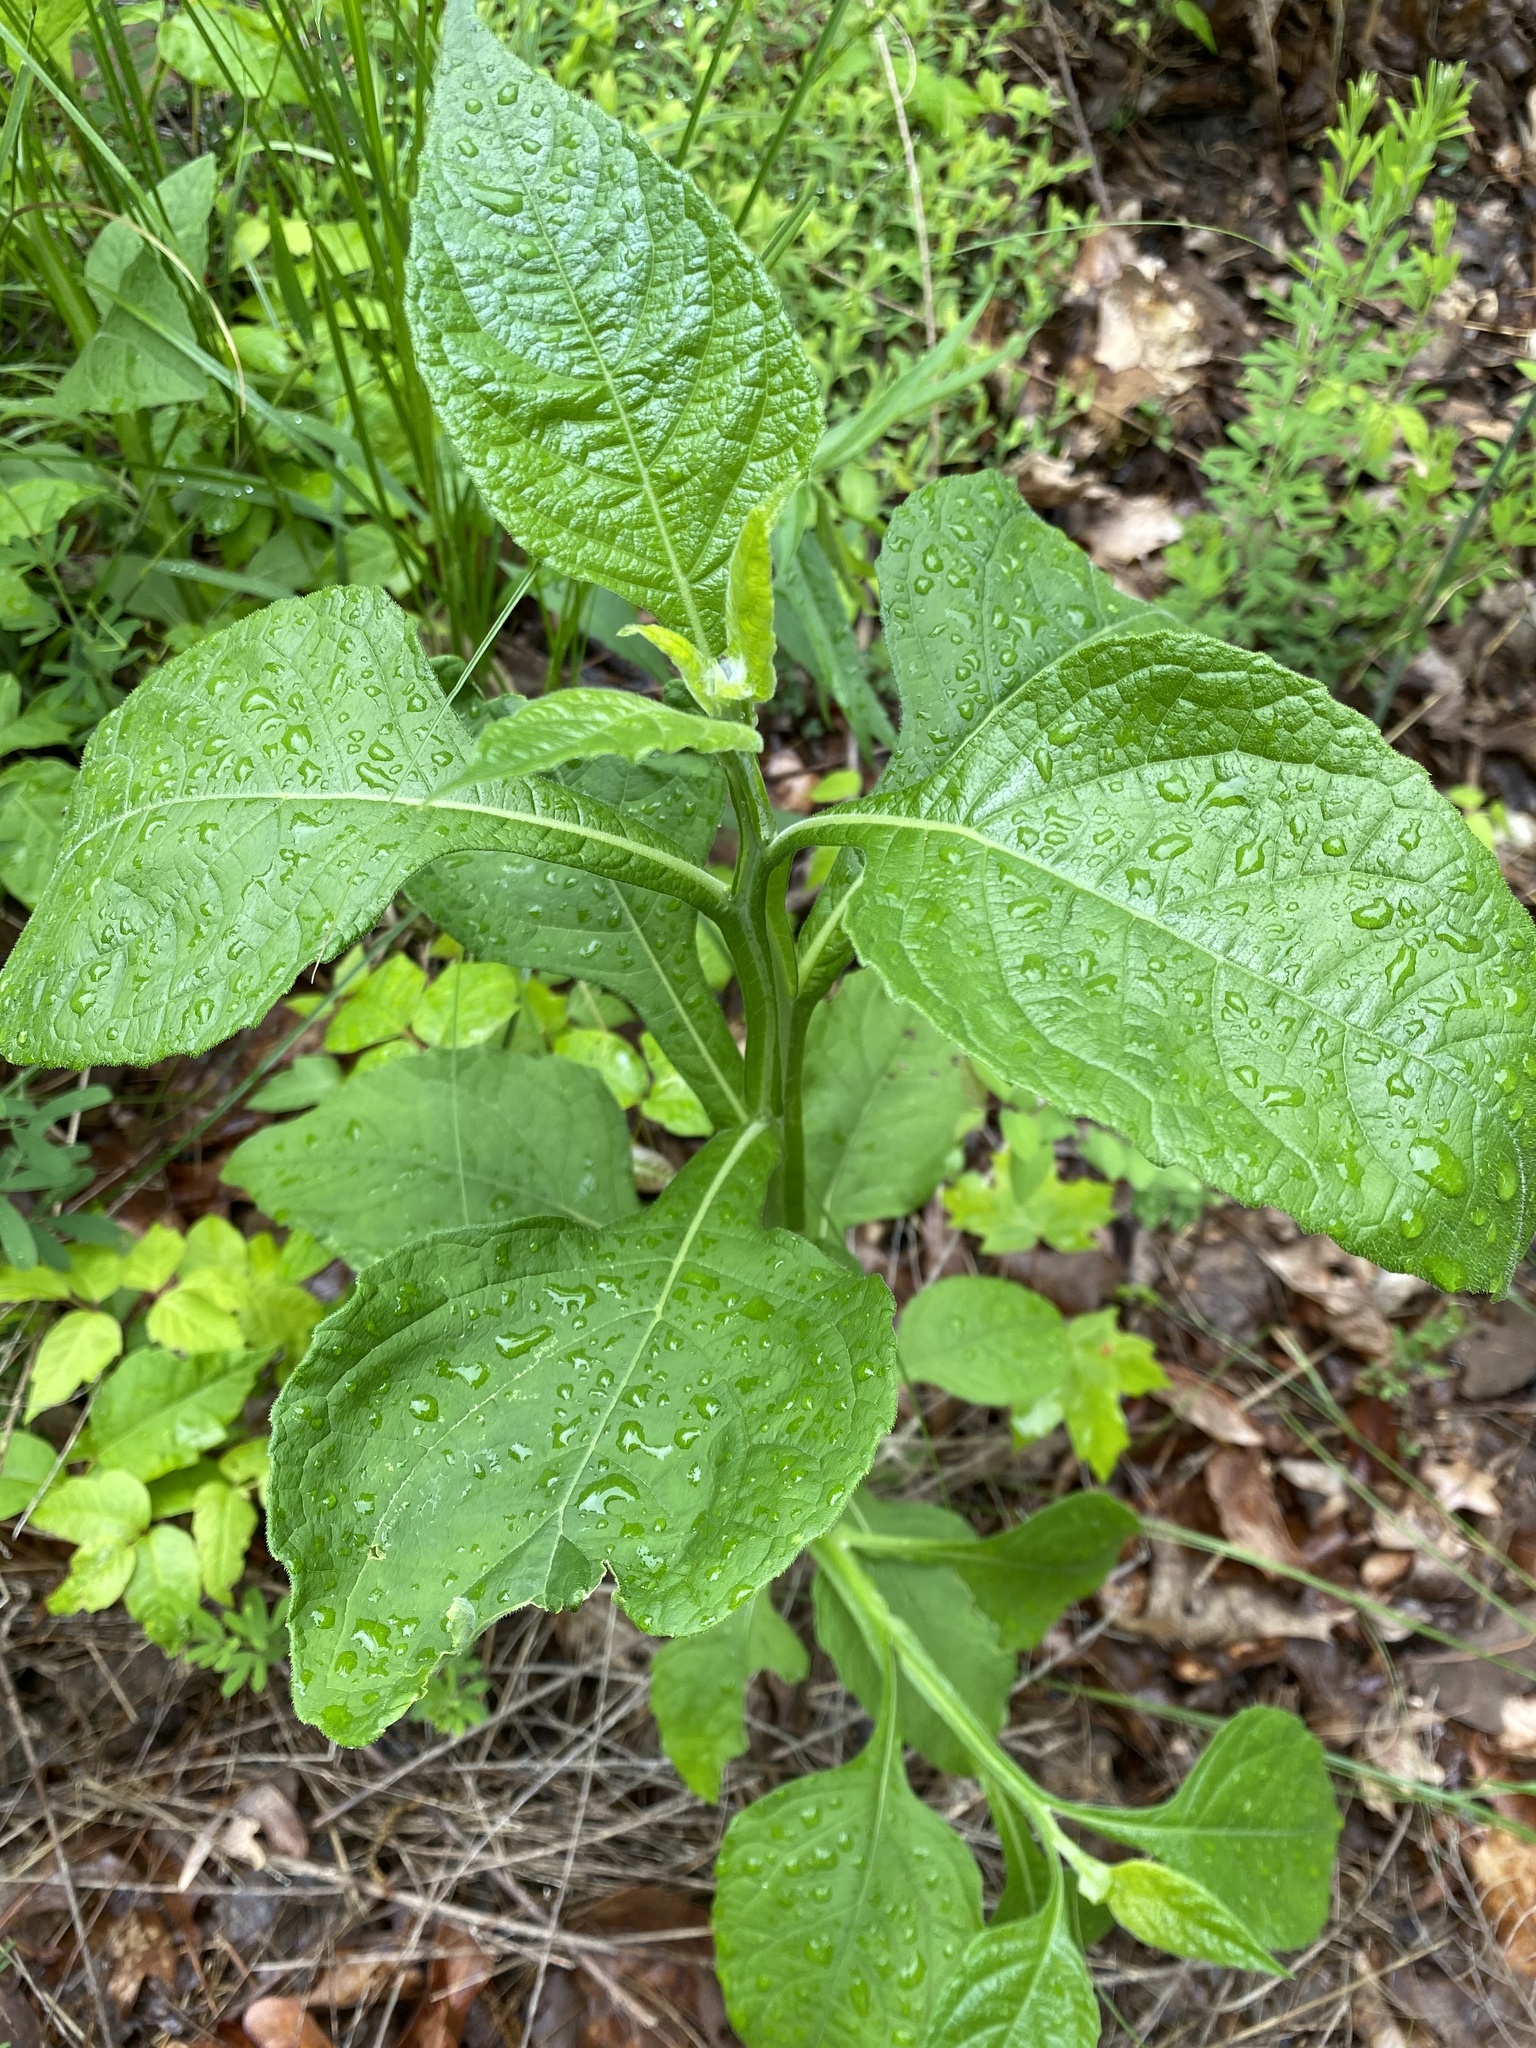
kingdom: Plantae
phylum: Tracheophyta
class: Magnoliopsida
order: Asterales
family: Asteraceae
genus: Verbesina
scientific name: Verbesina virginica
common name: Frostweed
